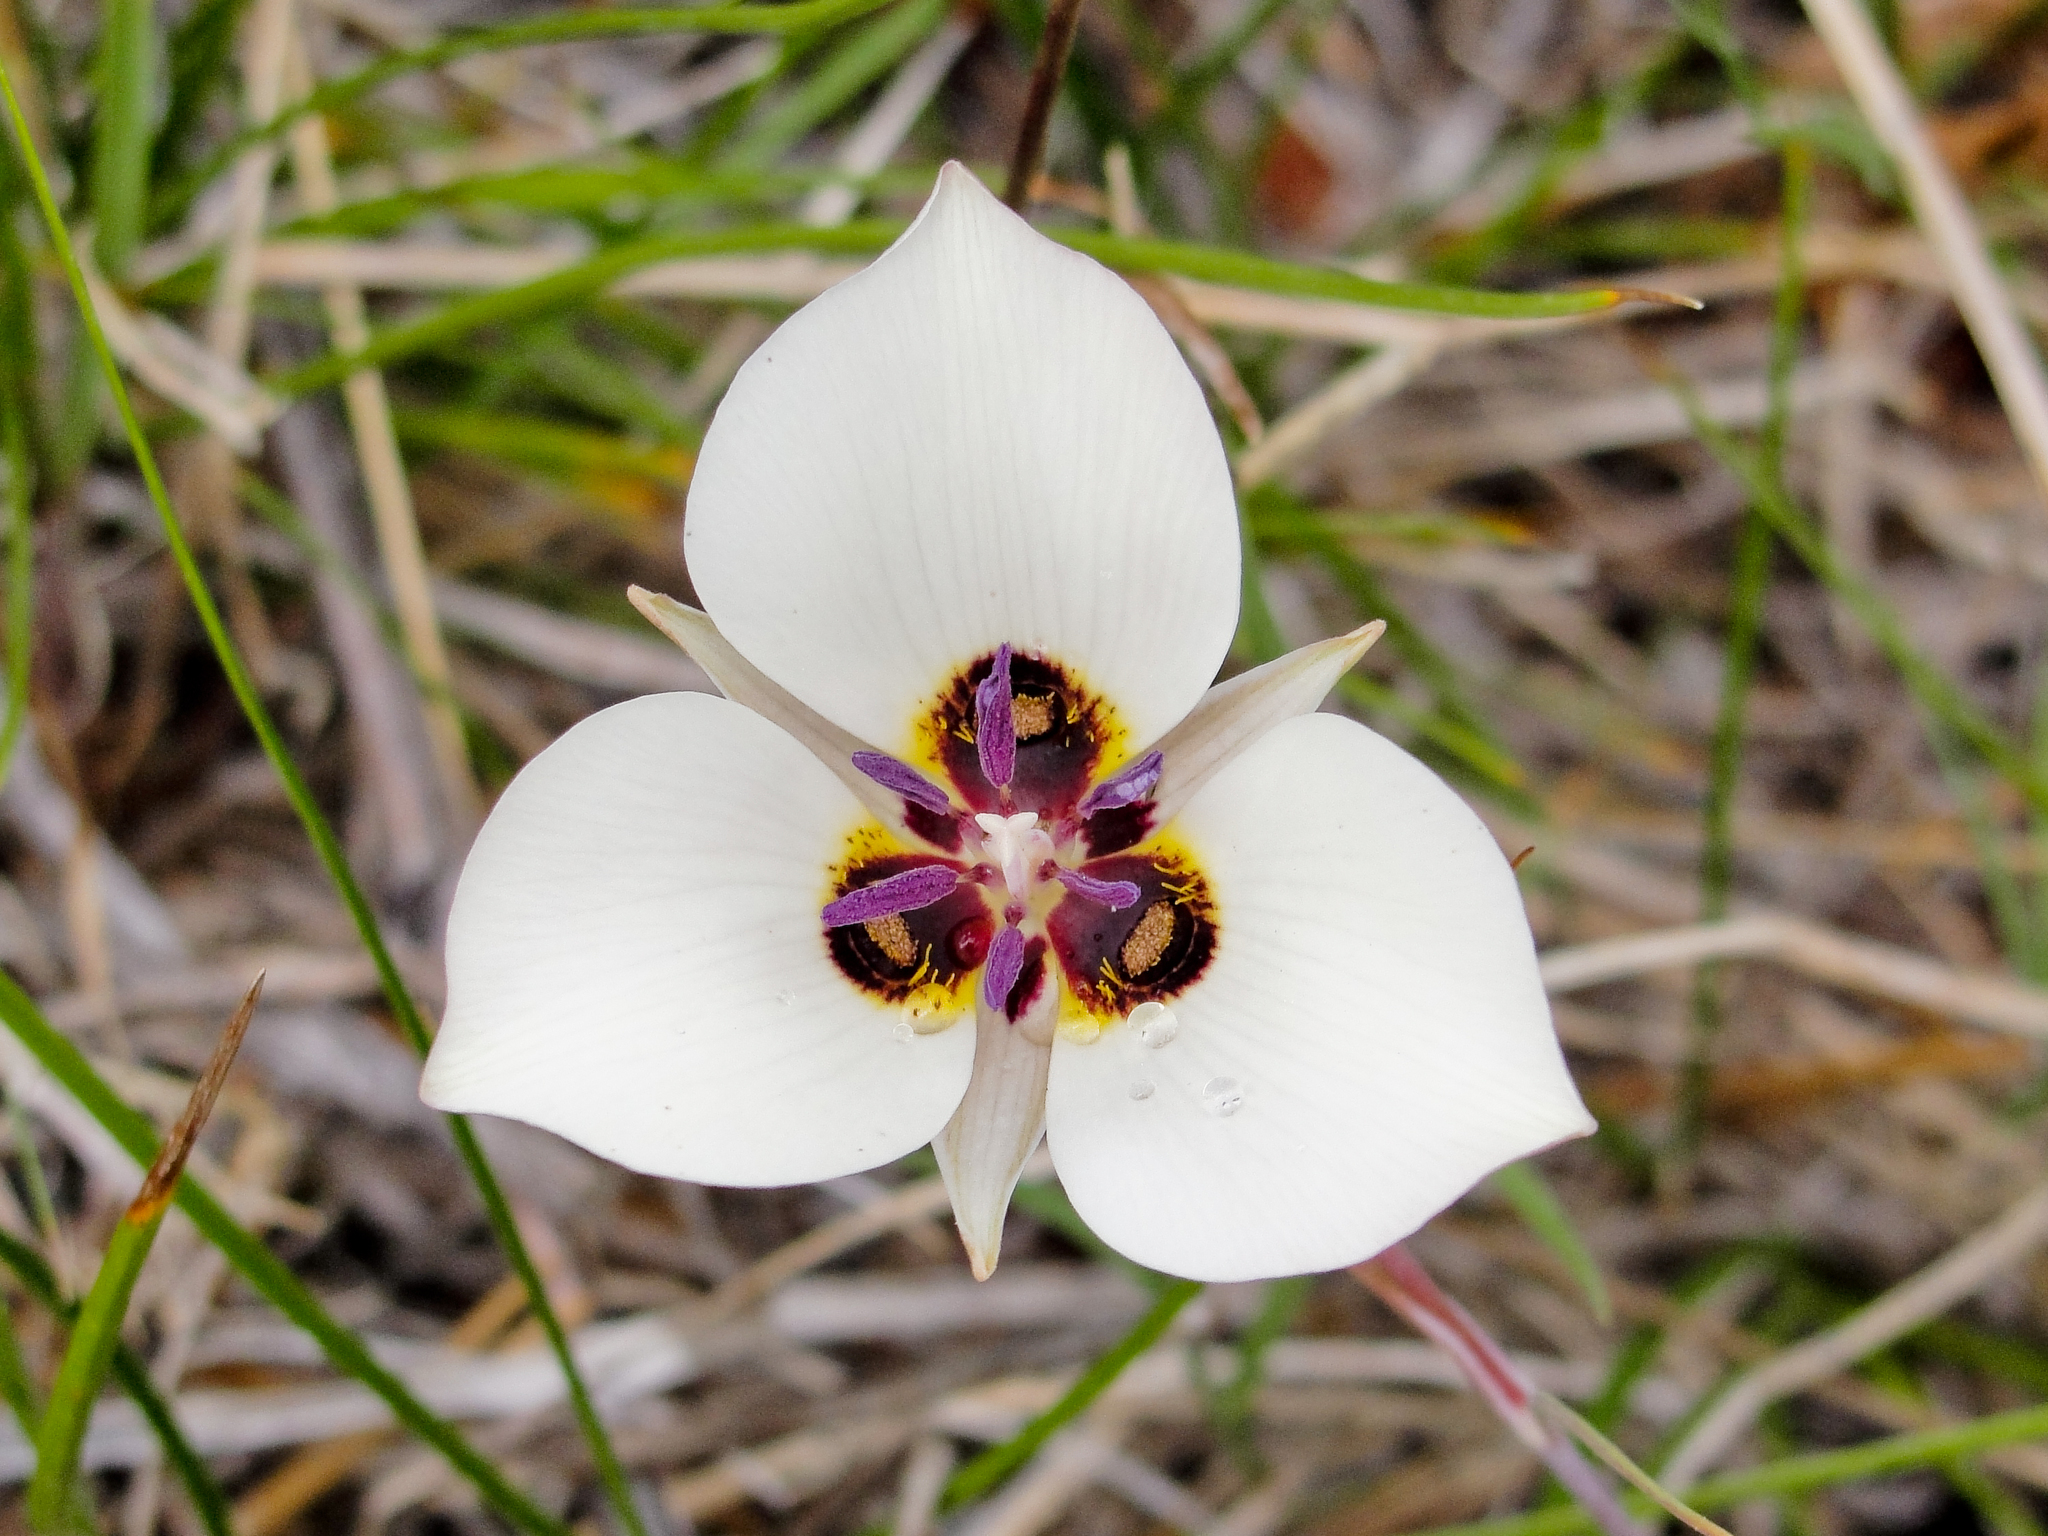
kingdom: Plantae
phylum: Tracheophyta
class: Liliopsida
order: Liliales
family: Liliaceae
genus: Calochortus
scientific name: Calochortus bruneaunis
